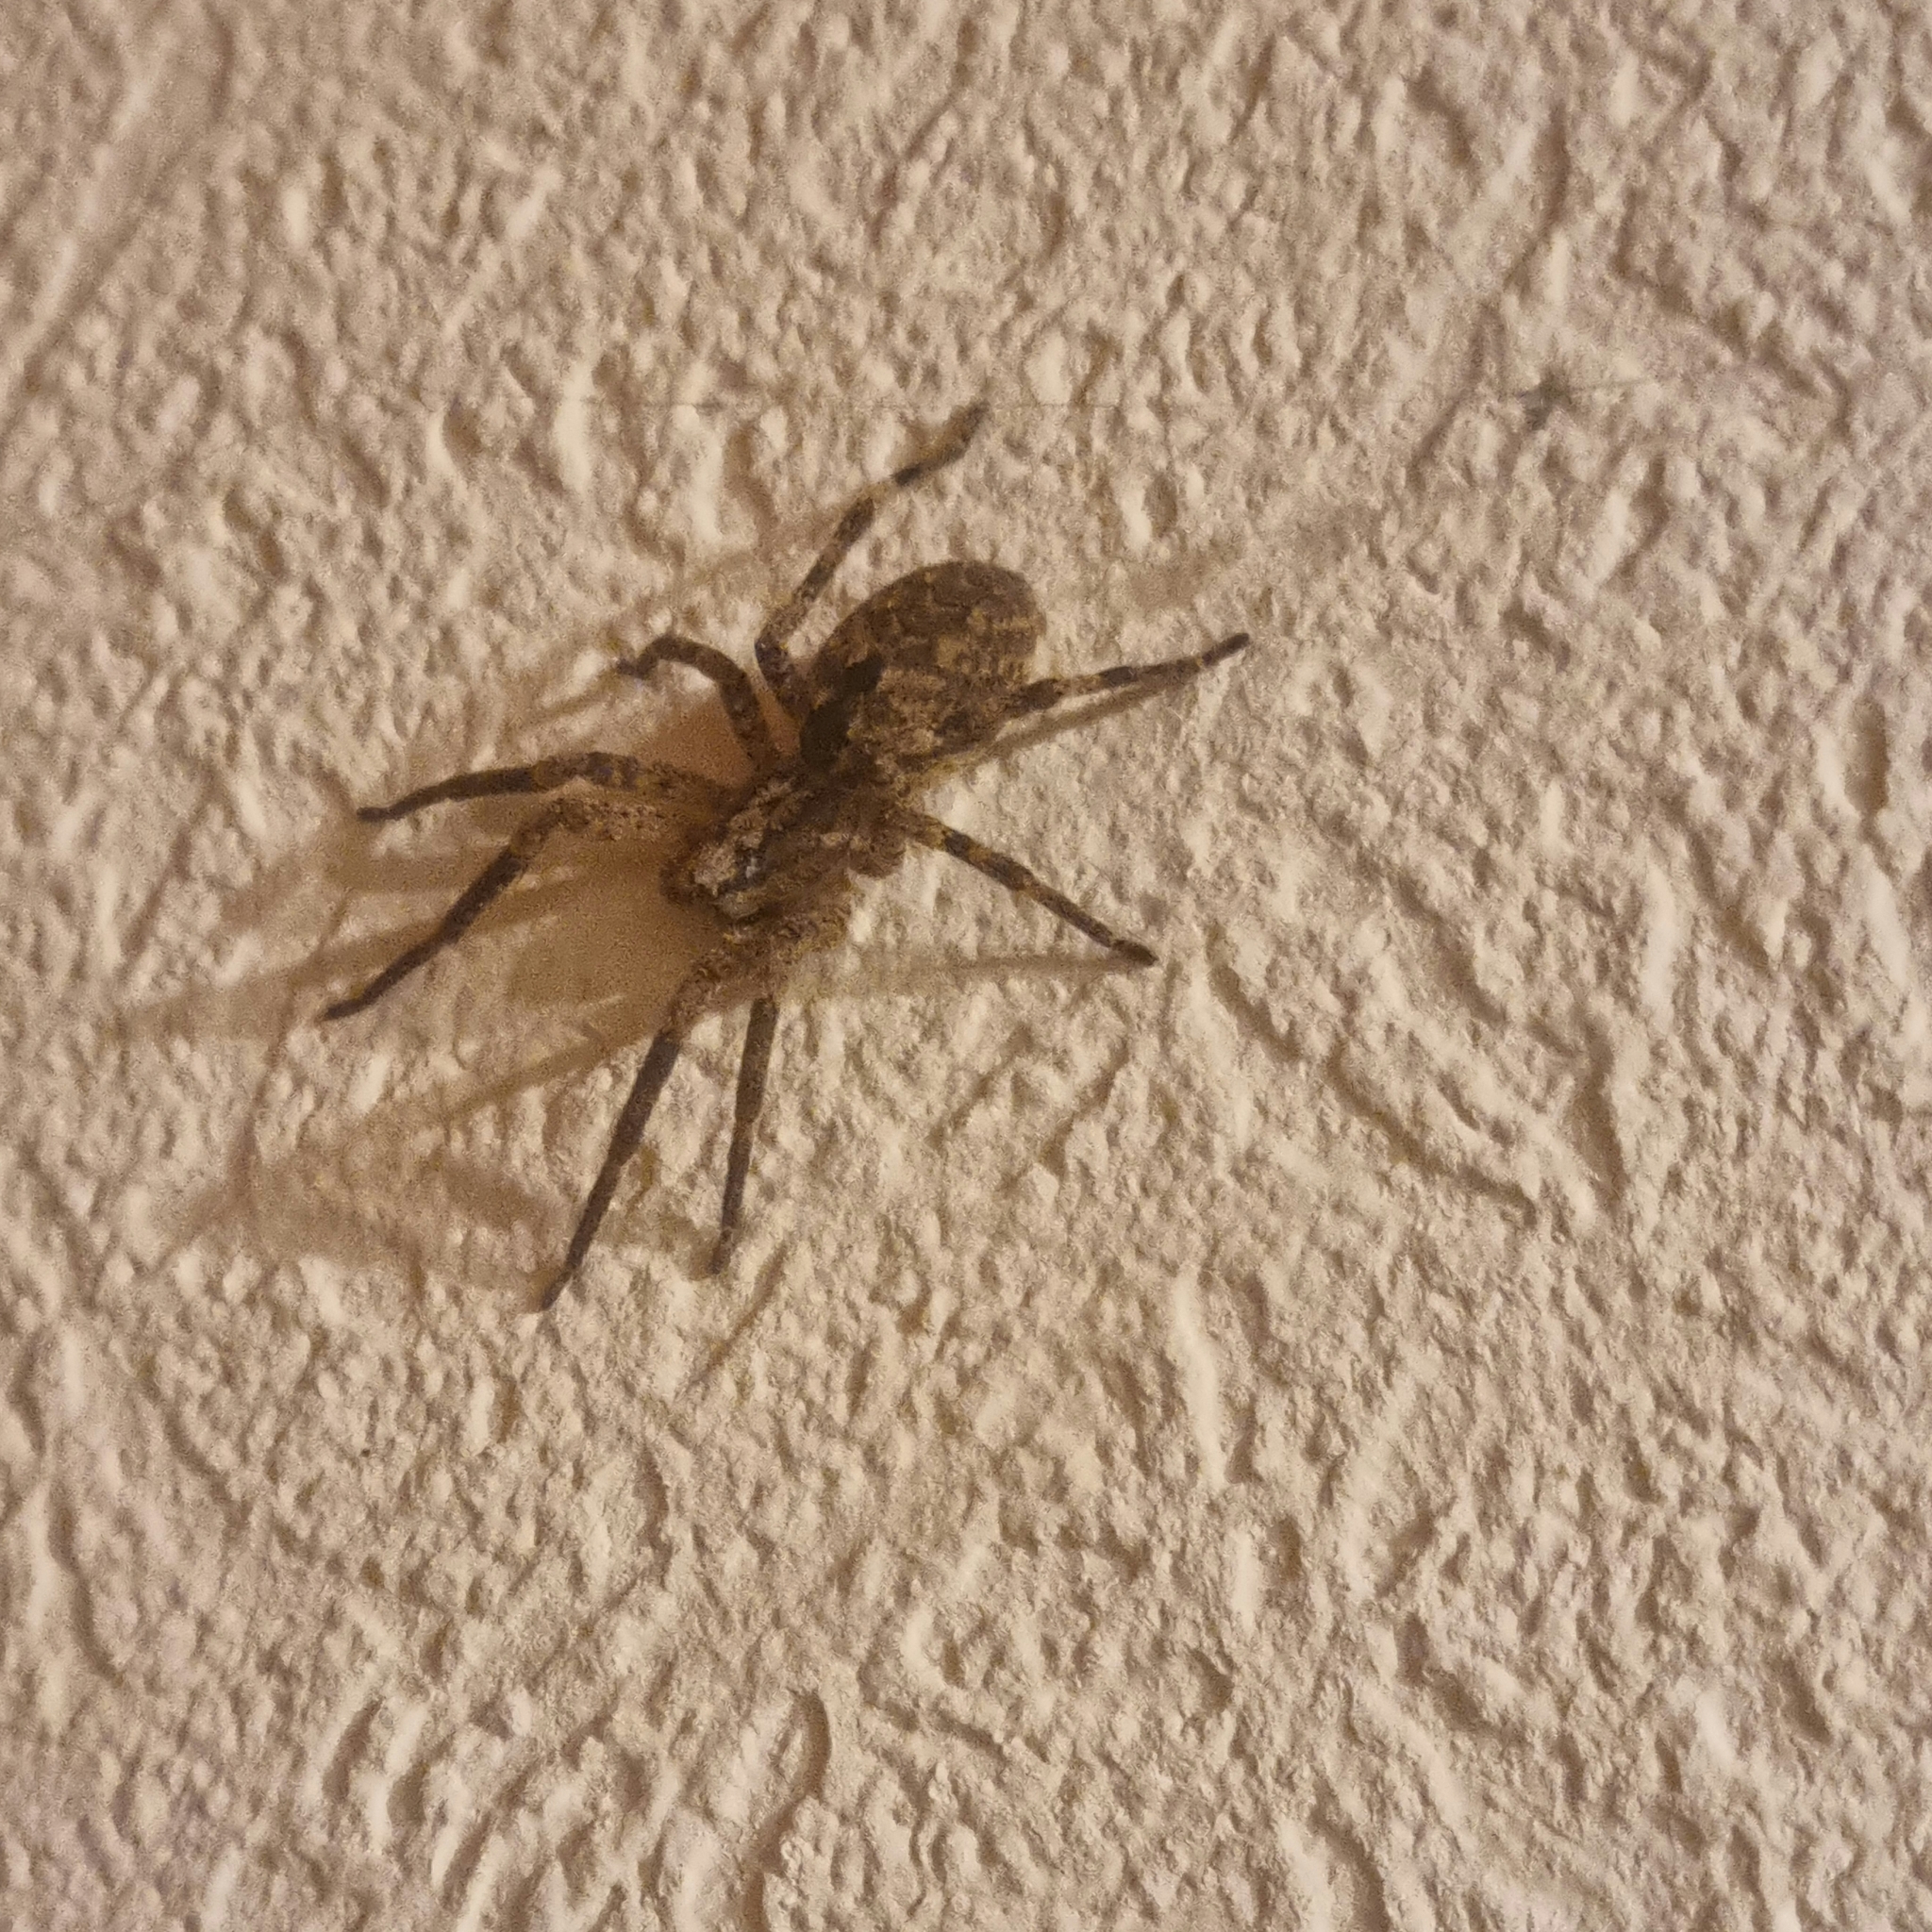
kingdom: Animalia
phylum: Arthropoda
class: Arachnida
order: Araneae
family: Zoropsidae
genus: Zoropsis
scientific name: Zoropsis spinimana
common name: Zoropsid spider
